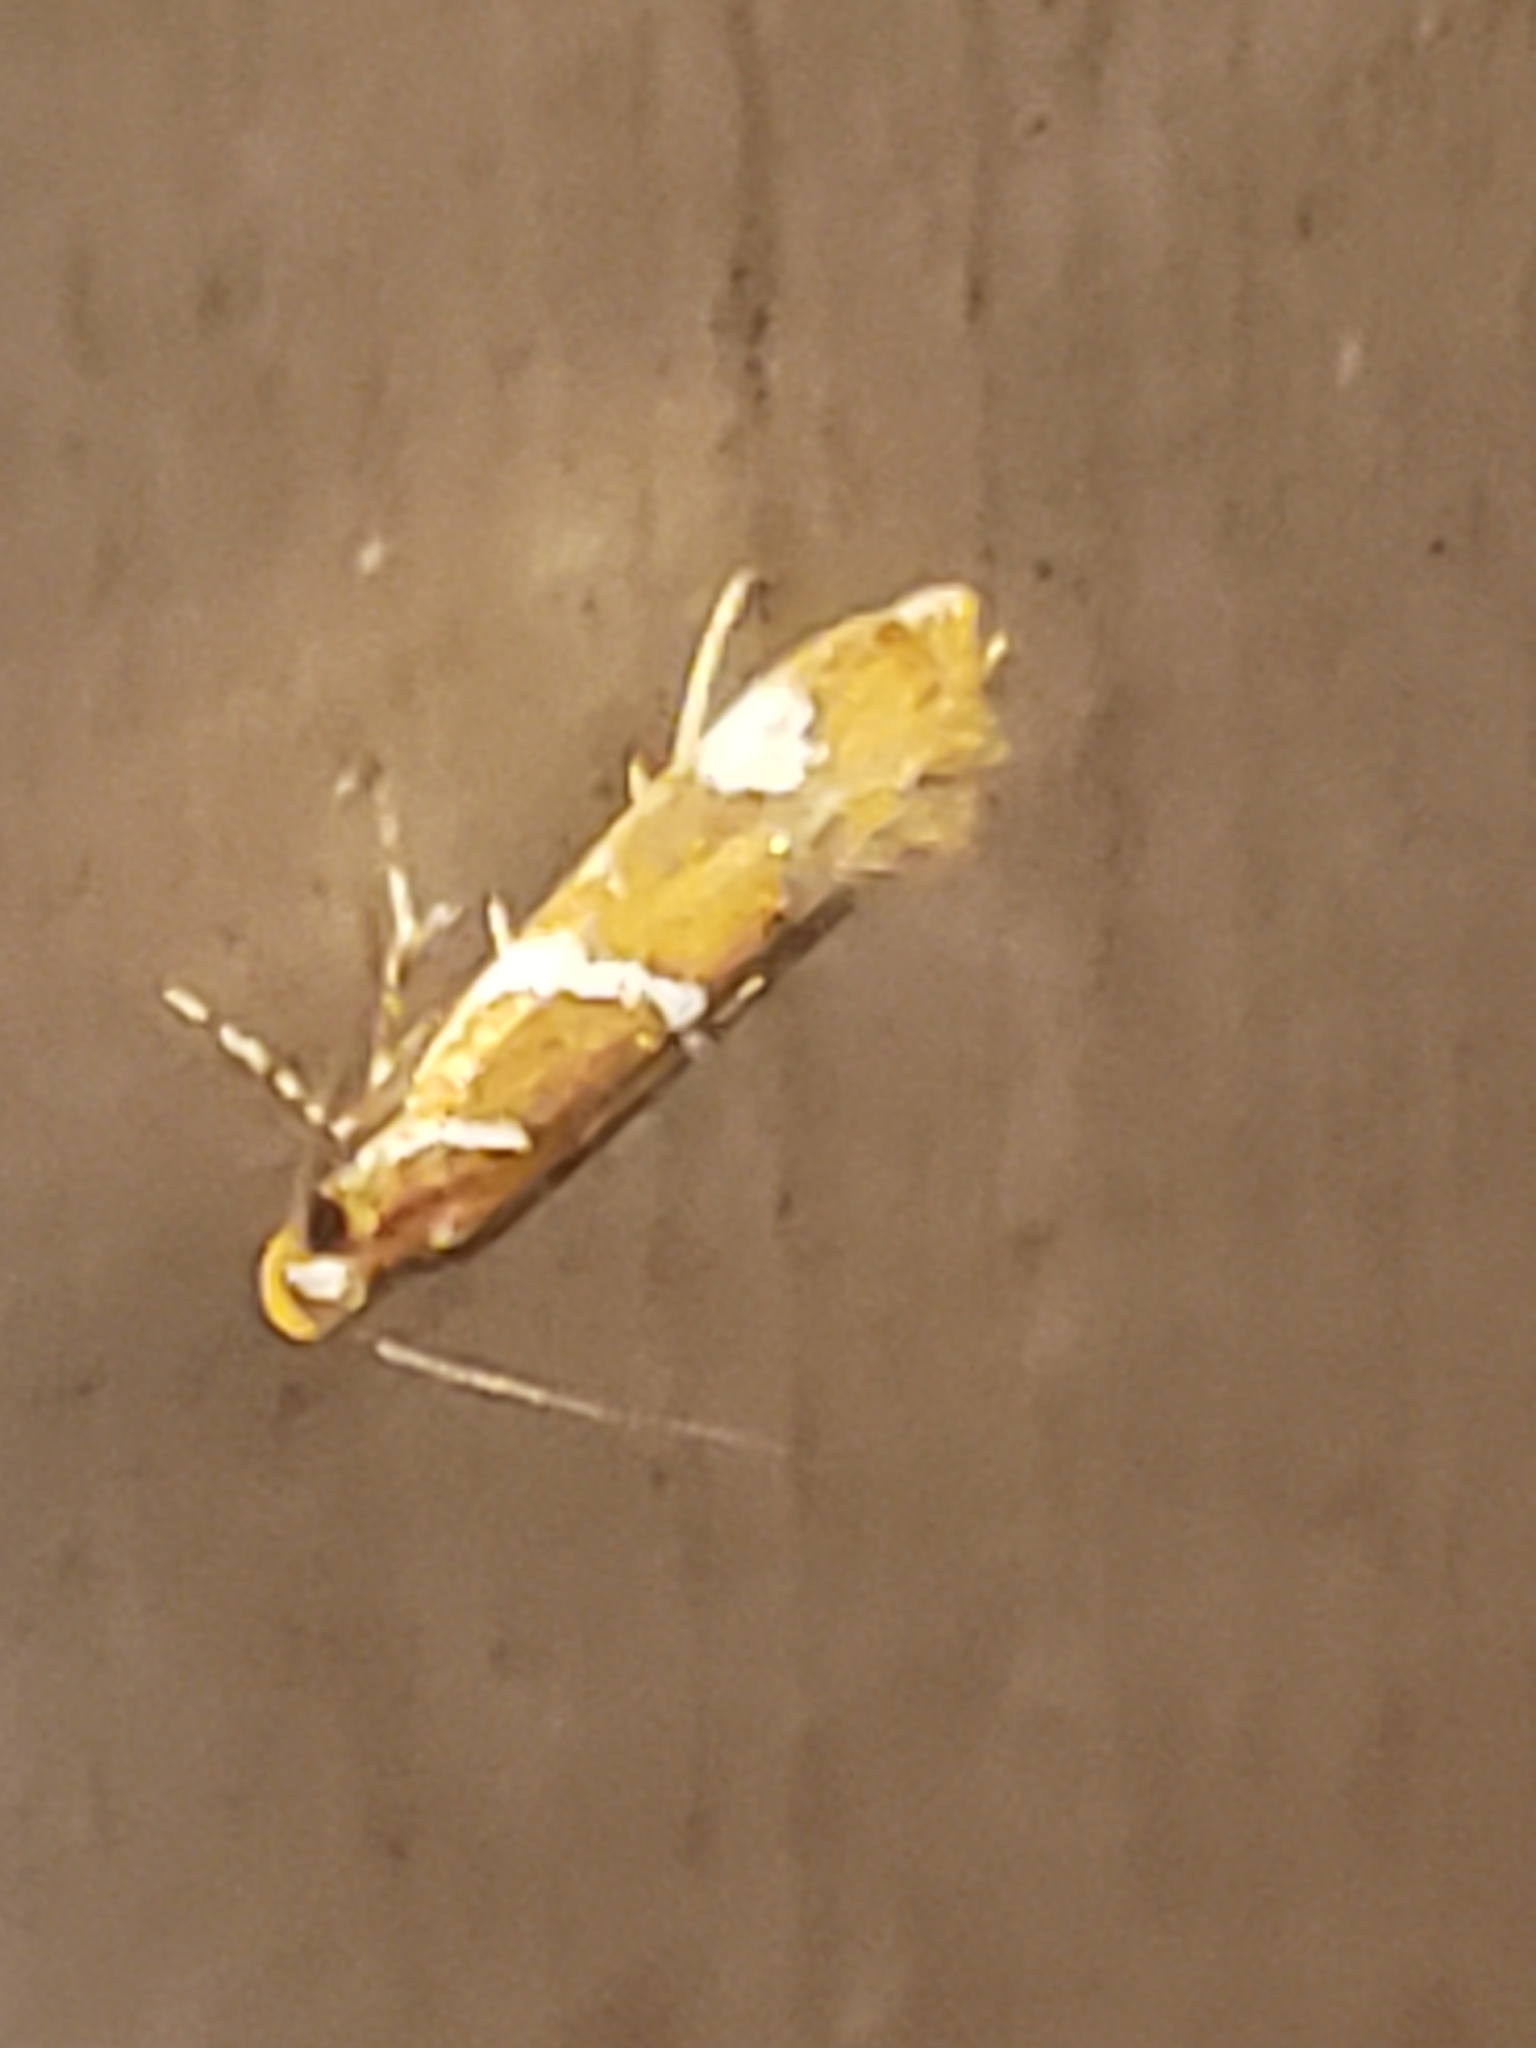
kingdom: Animalia
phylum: Arthropoda
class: Insecta
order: Lepidoptera
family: Oecophoridae
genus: Promalactis
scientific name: Promalactis suzukiella
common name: Moth
